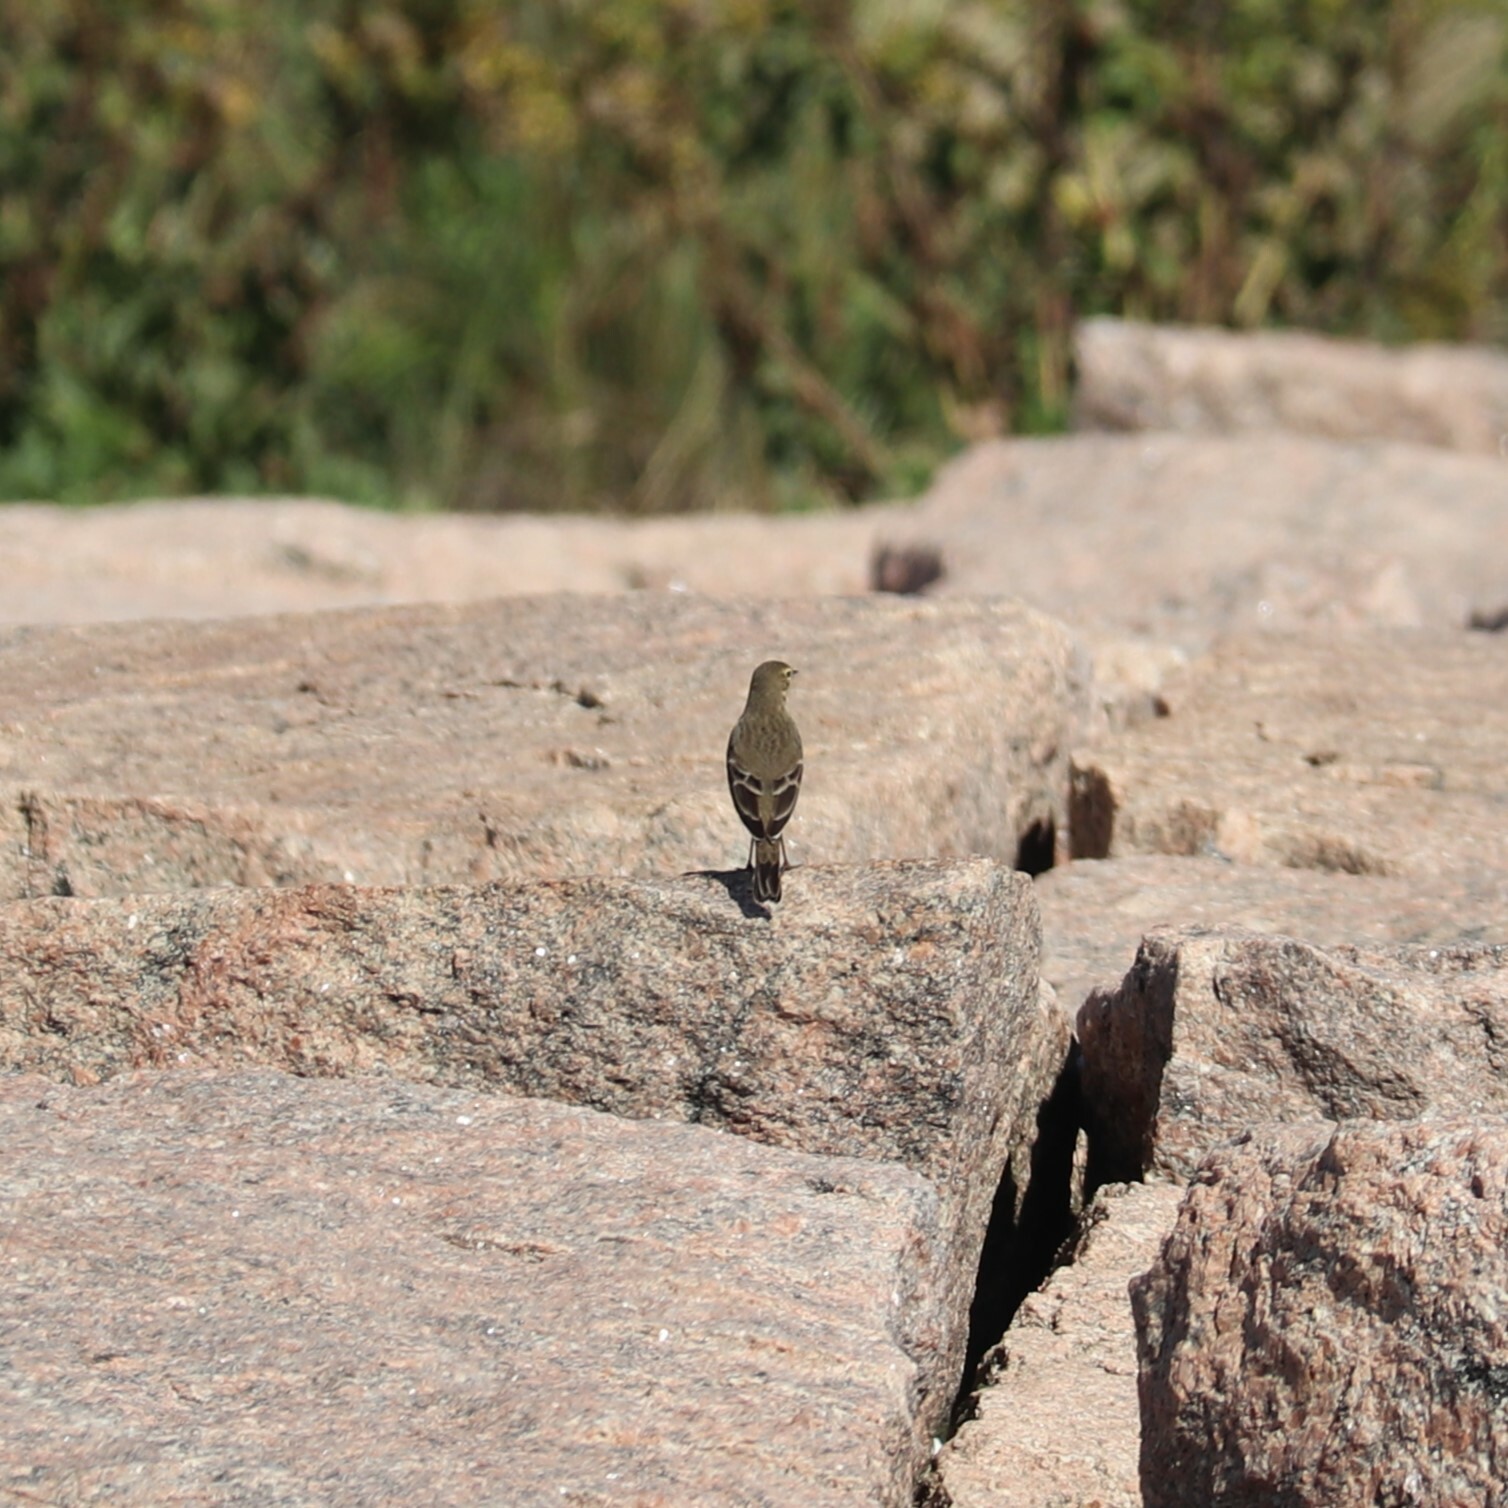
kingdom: Animalia
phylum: Chordata
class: Aves
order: Passeriformes
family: Motacillidae
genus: Anthus
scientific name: Anthus rubescens
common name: Buff-bellied pipit
